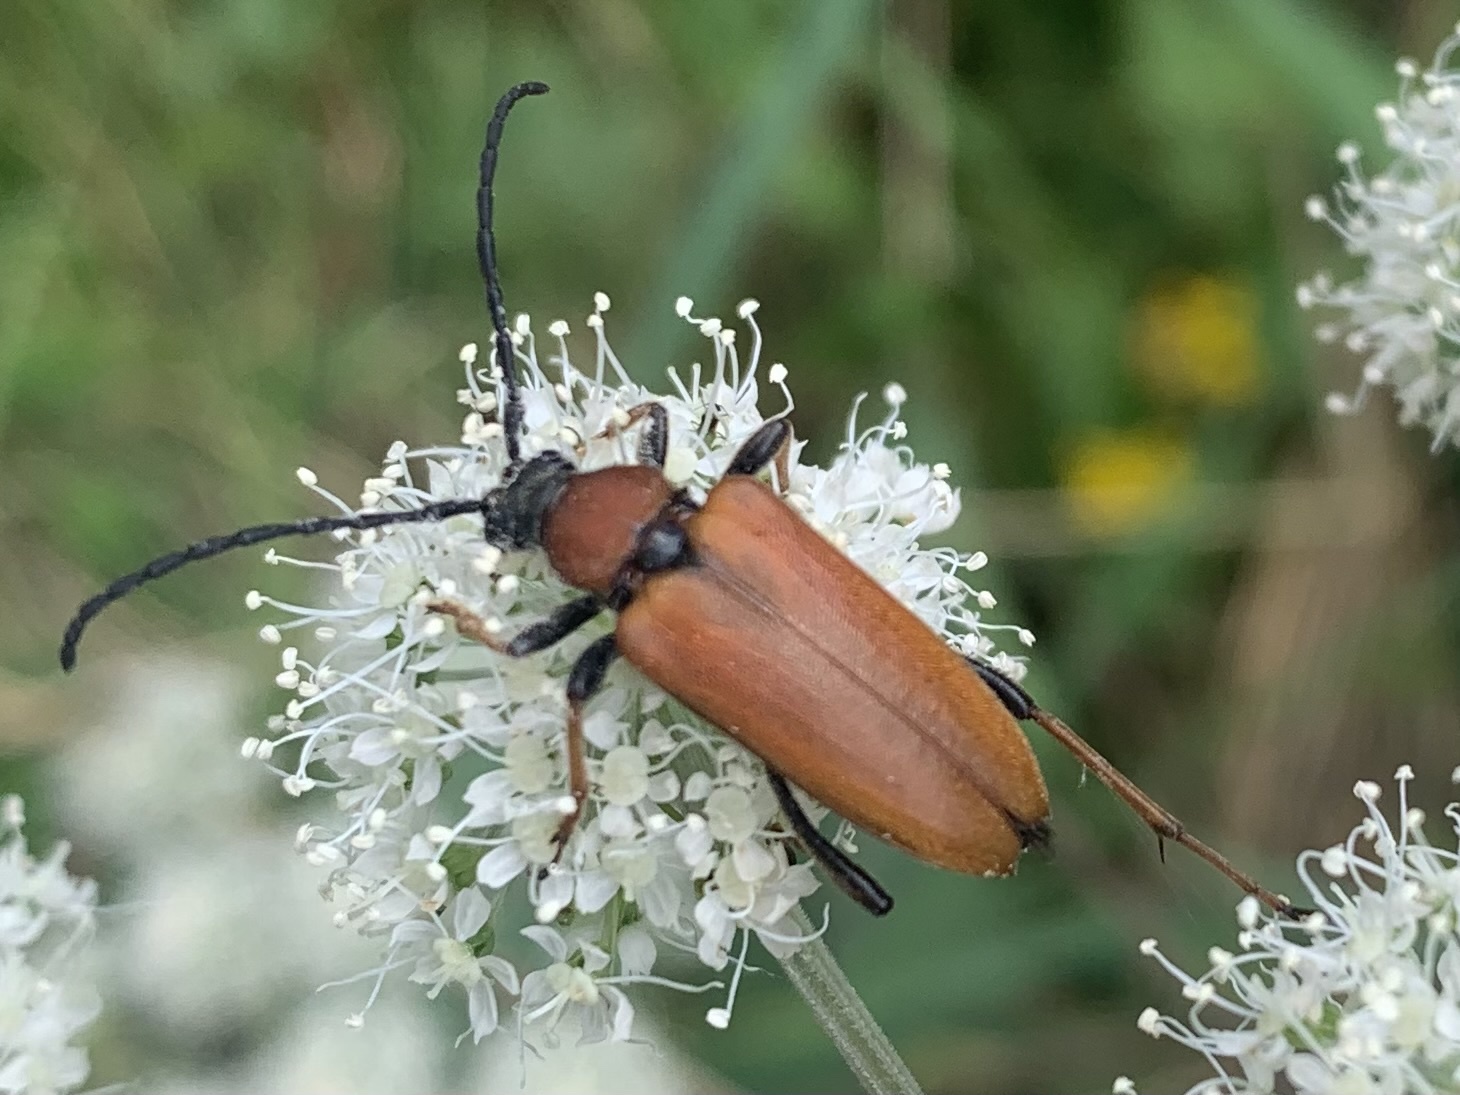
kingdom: Animalia
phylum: Arthropoda
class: Insecta
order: Coleoptera
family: Cerambycidae
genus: Stictoleptura
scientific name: Stictoleptura rubra
